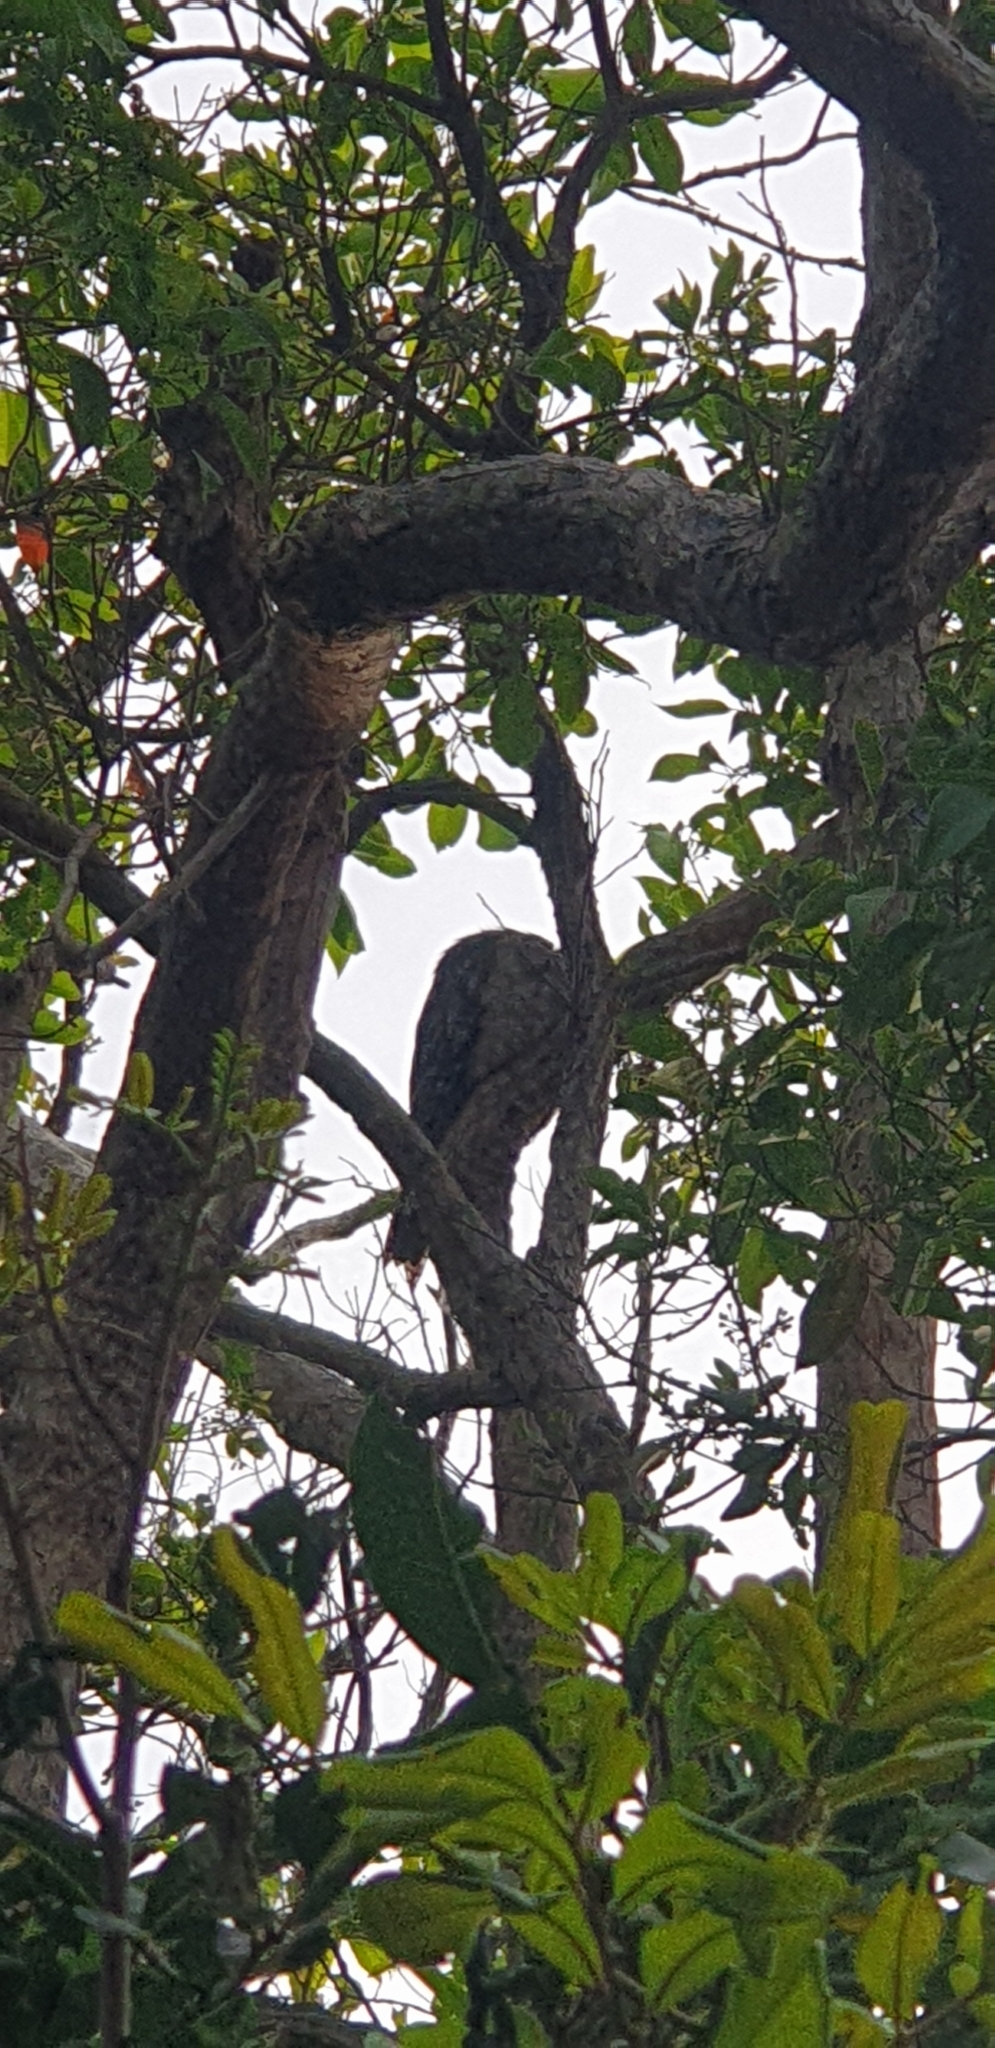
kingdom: Animalia
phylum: Chordata
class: Aves
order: Caprimulgiformes
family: Podargidae
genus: Podargus
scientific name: Podargus strigoides
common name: Tawny frogmouth
